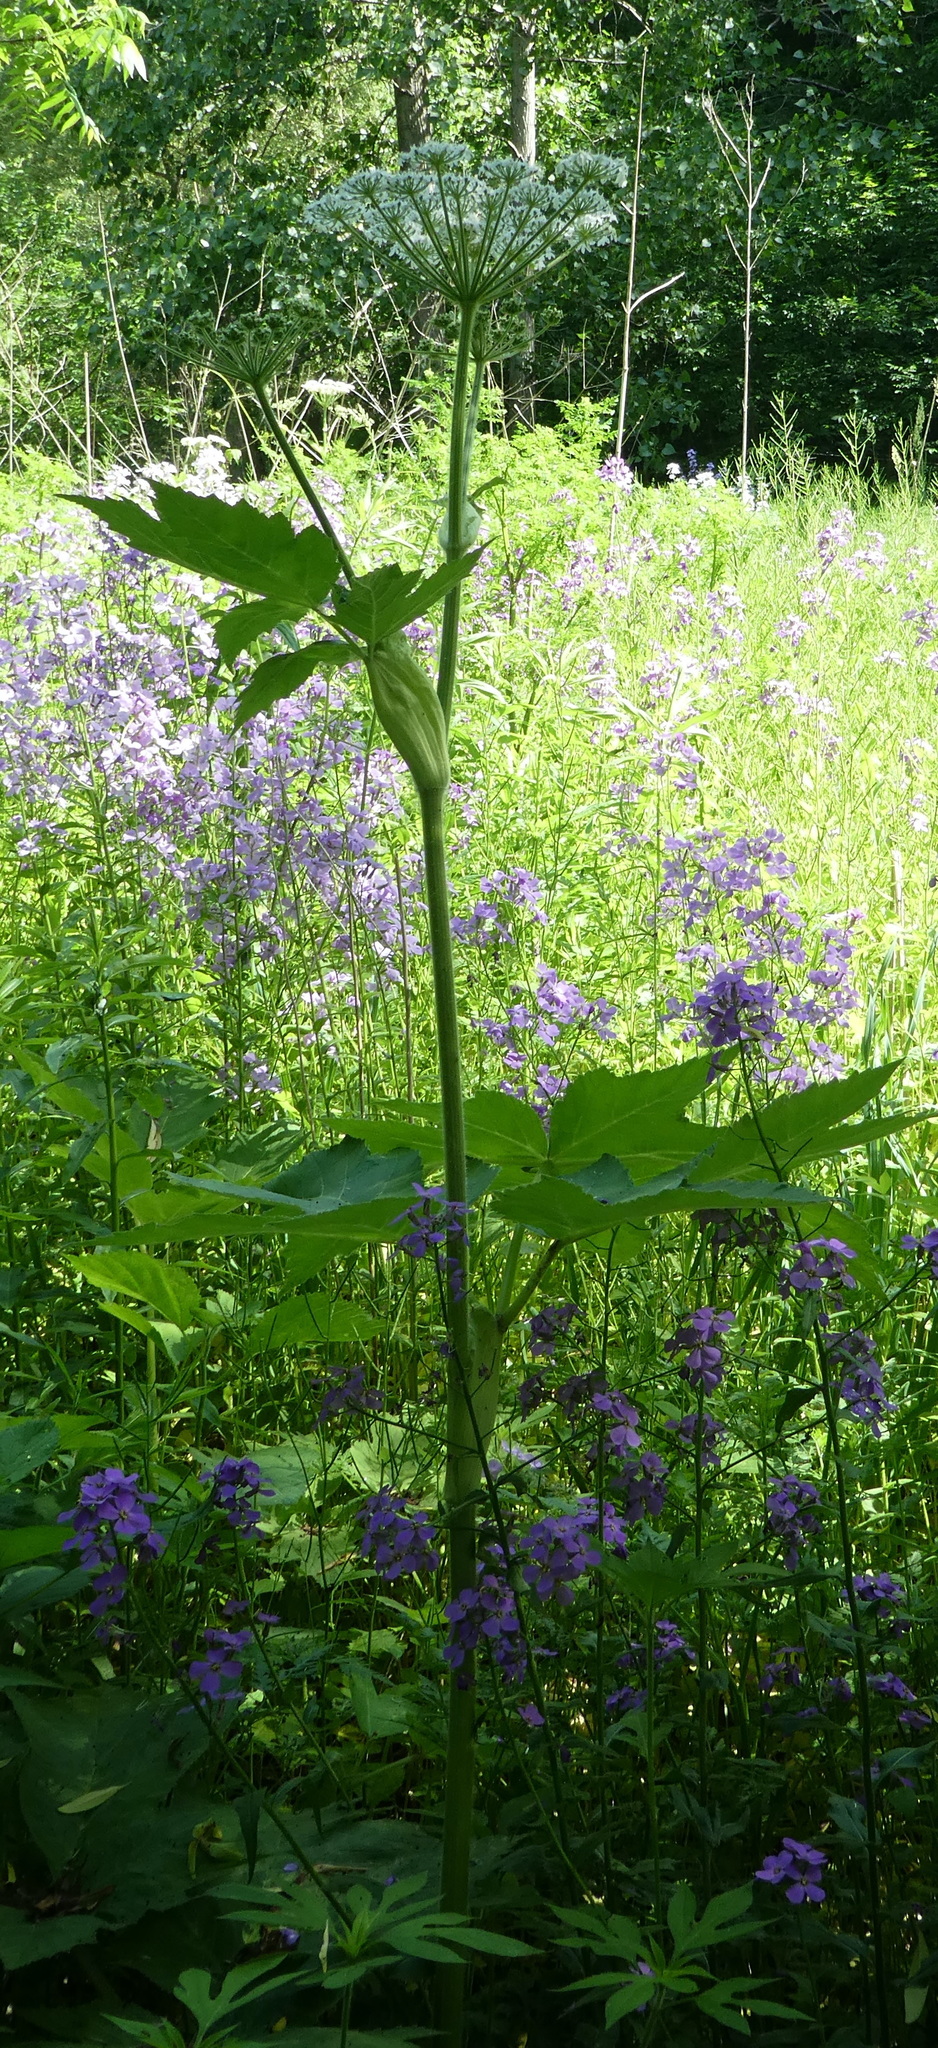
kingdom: Plantae
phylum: Tracheophyta
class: Magnoliopsida
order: Apiales
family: Apiaceae
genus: Heracleum
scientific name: Heracleum maximum
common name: American cow parsnip
